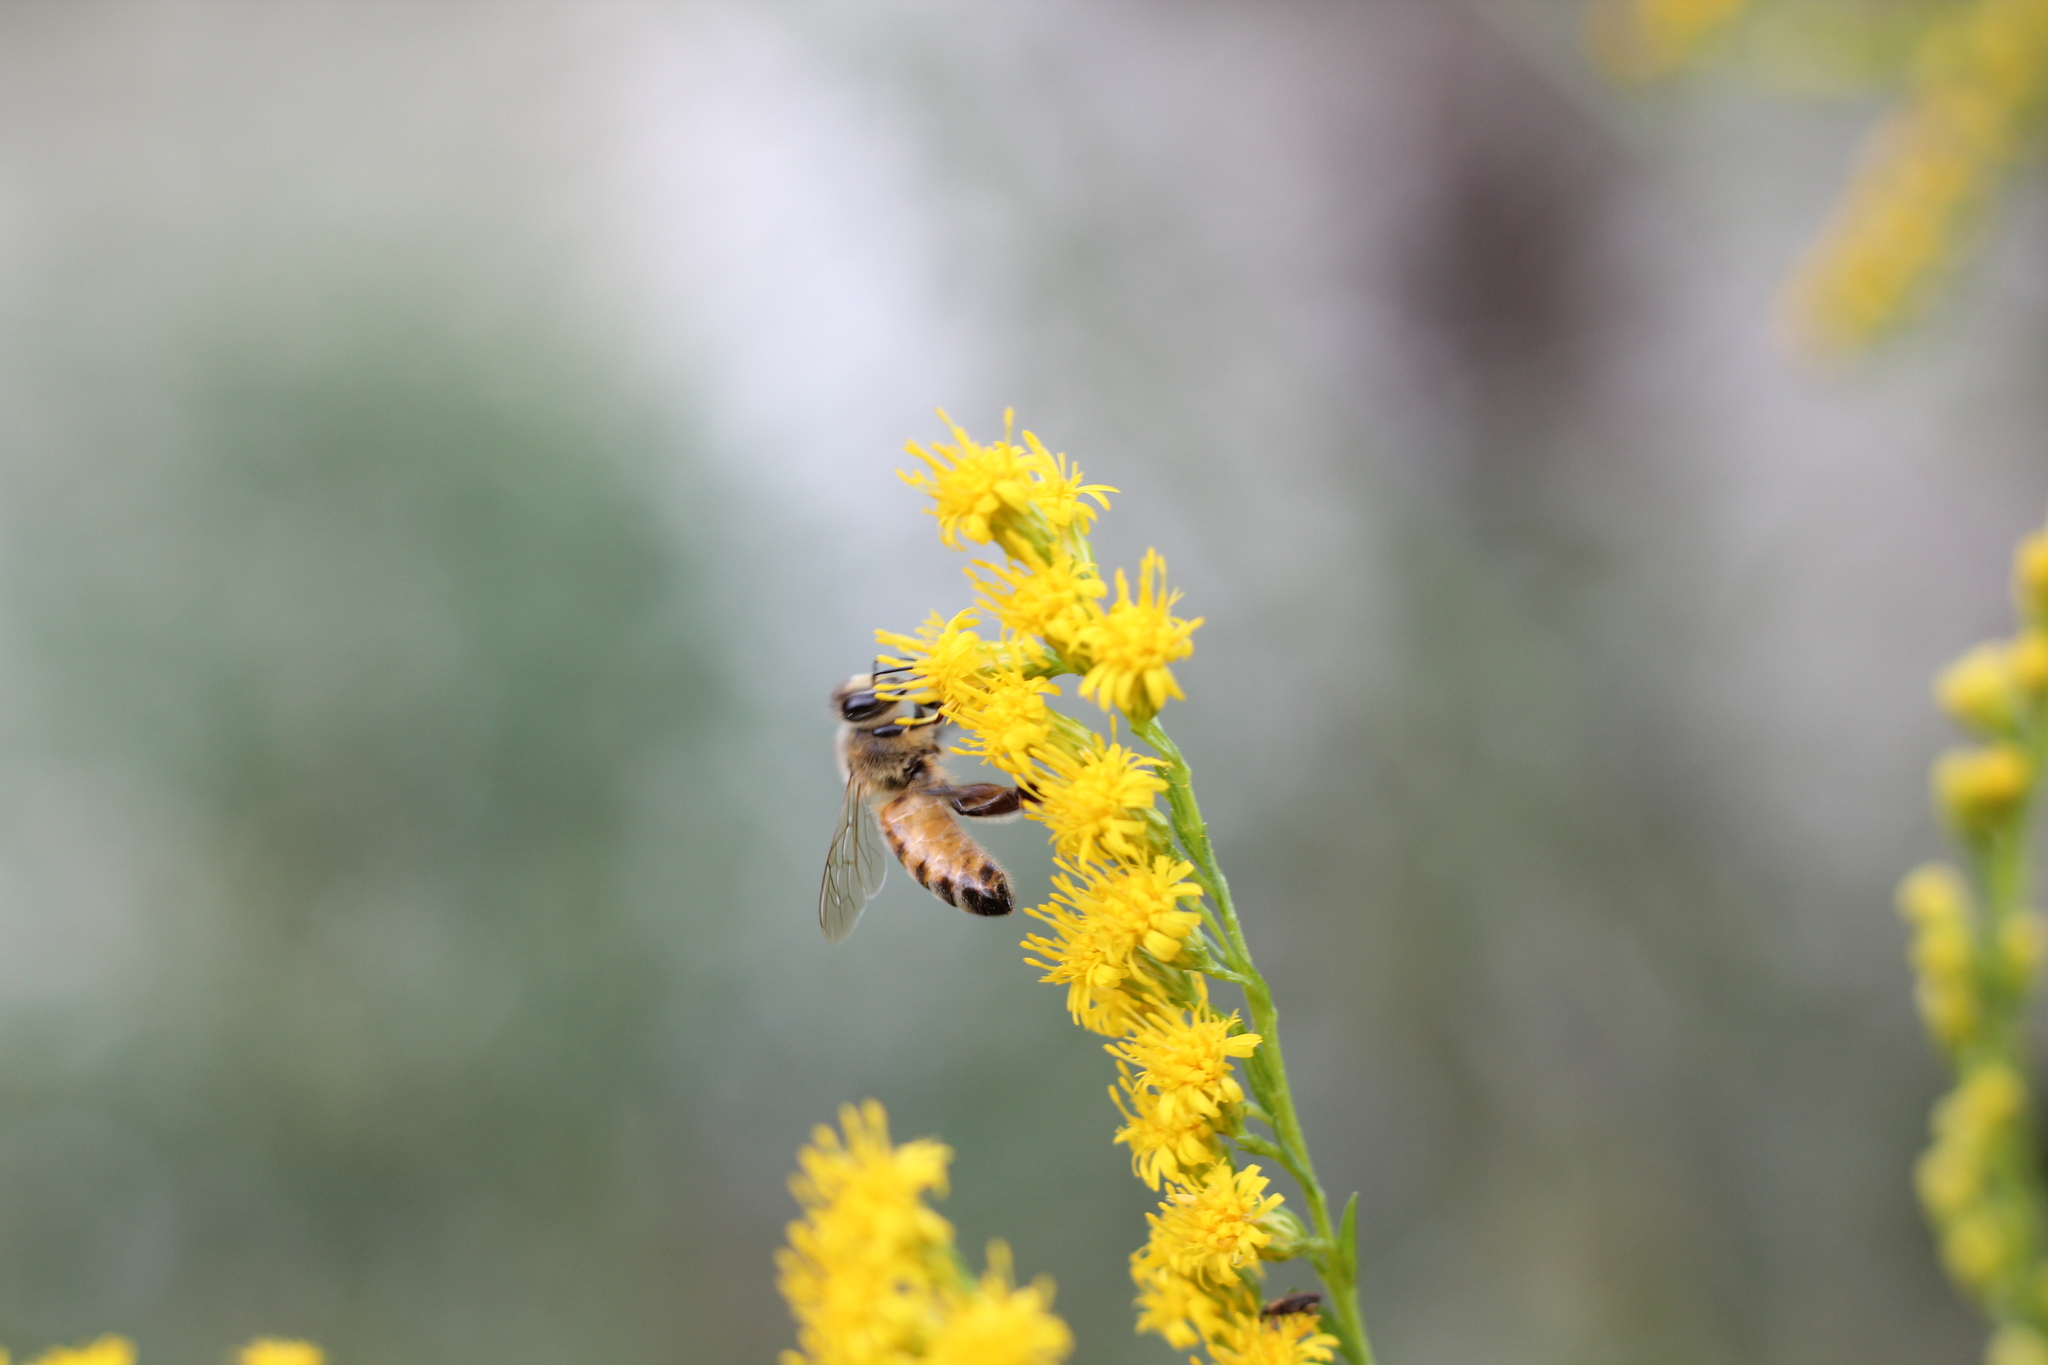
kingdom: Animalia
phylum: Arthropoda
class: Insecta
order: Hymenoptera
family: Apidae
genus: Apis
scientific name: Apis mellifera
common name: Honey bee
